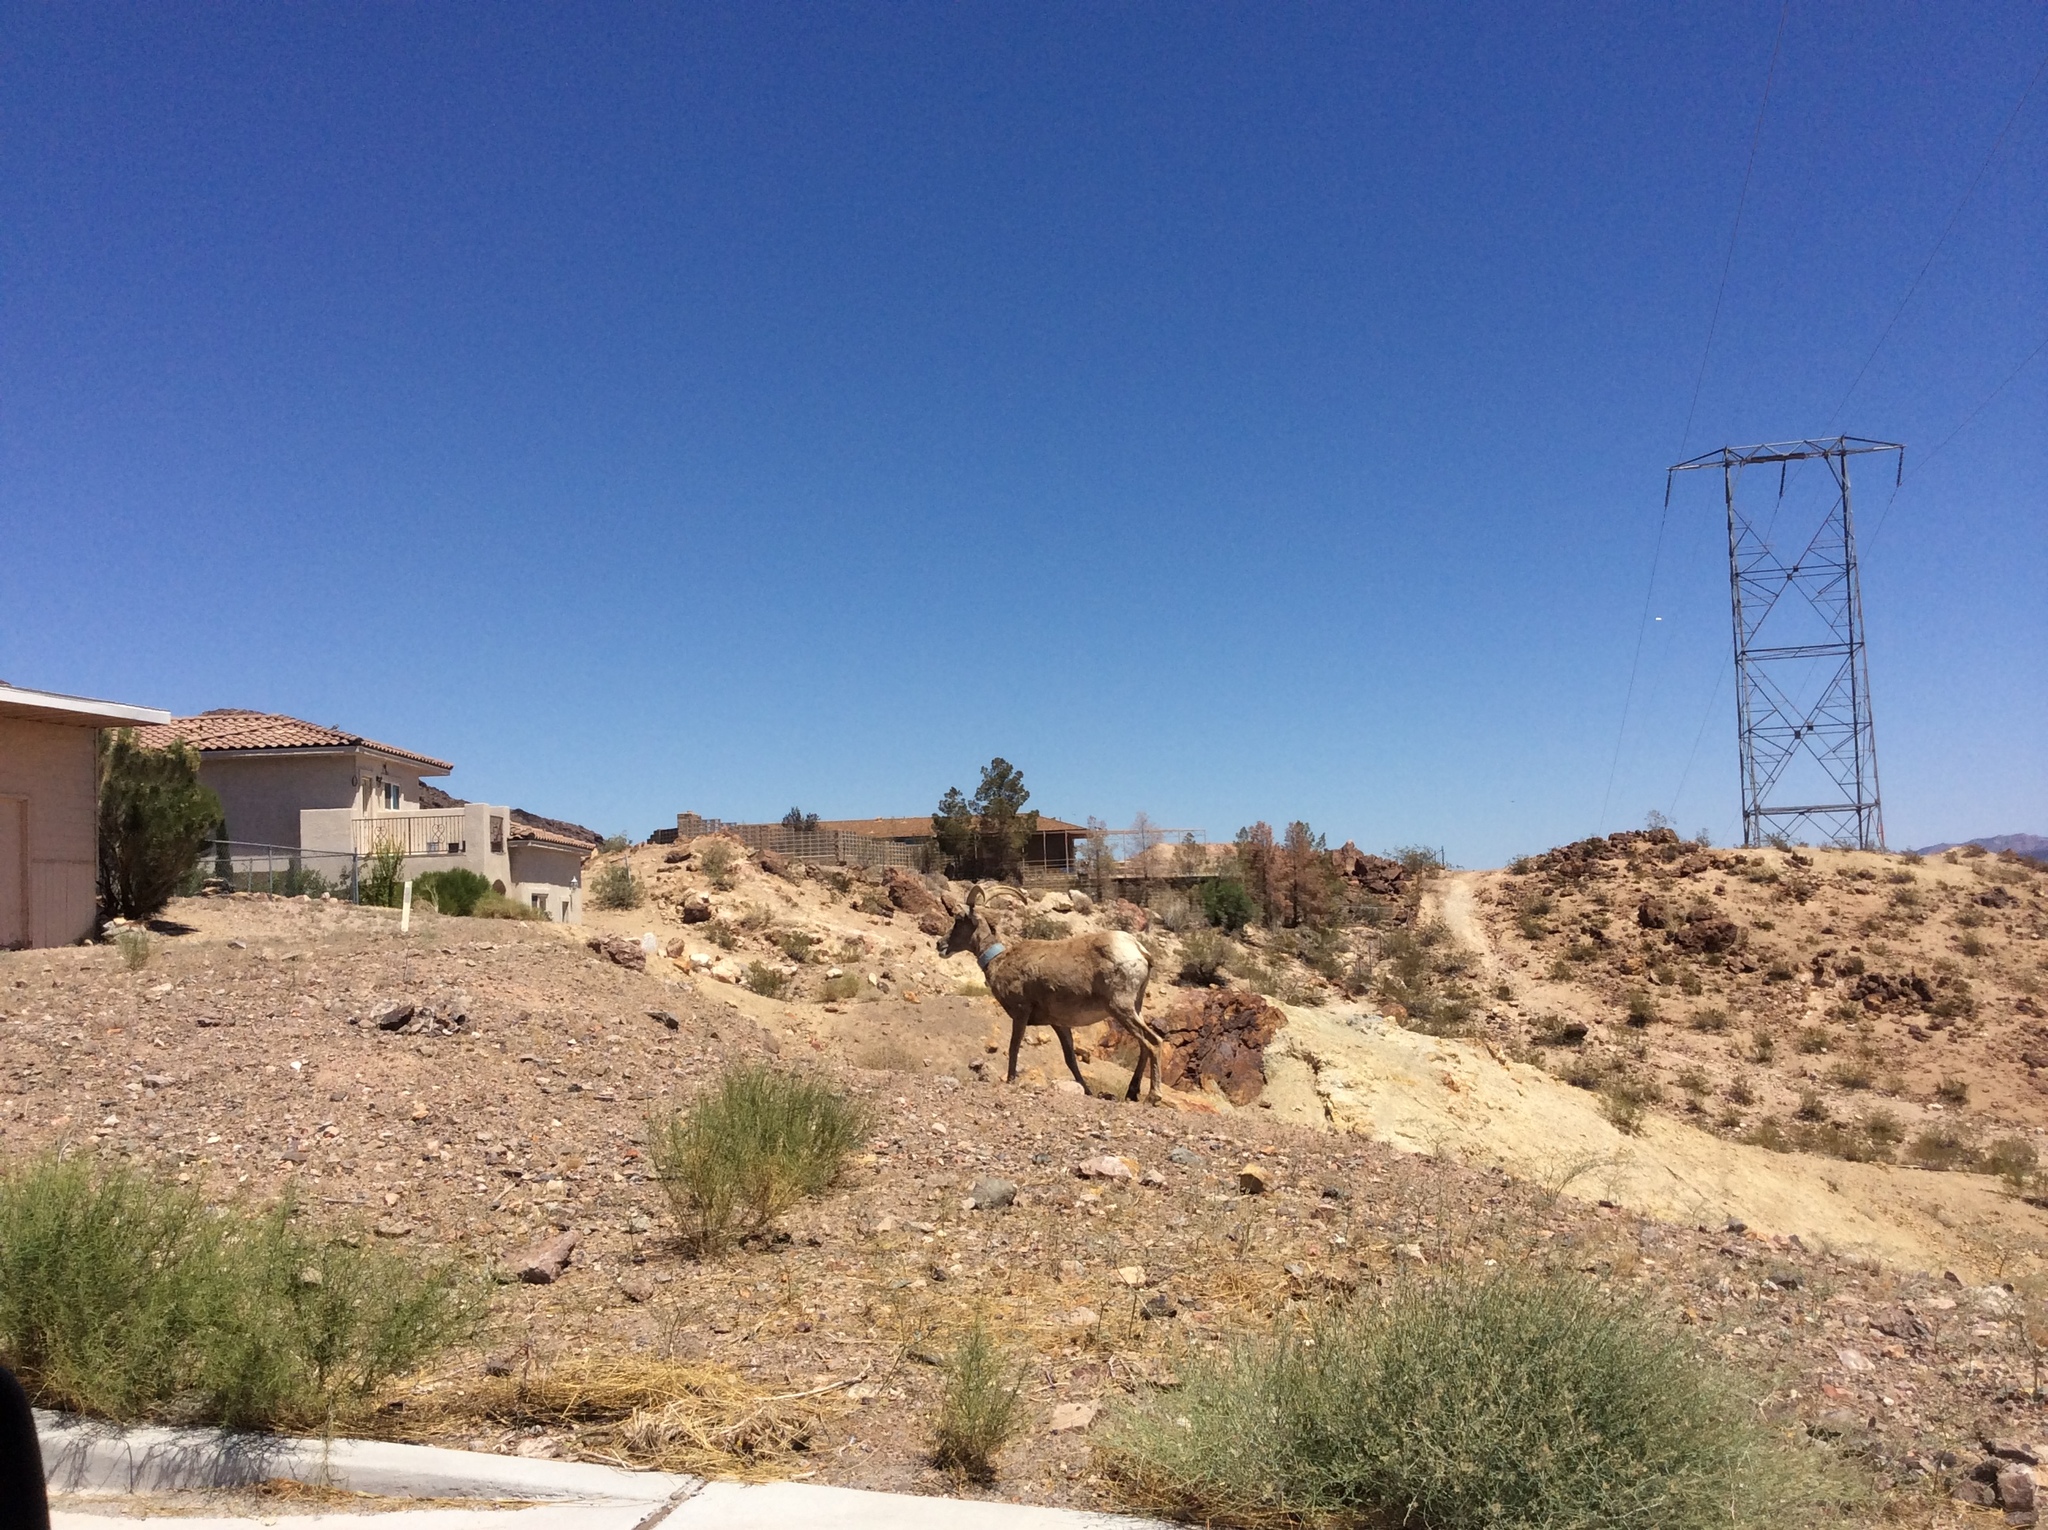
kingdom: Animalia
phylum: Chordata
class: Mammalia
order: Artiodactyla
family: Bovidae
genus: Ovis
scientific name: Ovis canadensis
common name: Bighorn sheep
